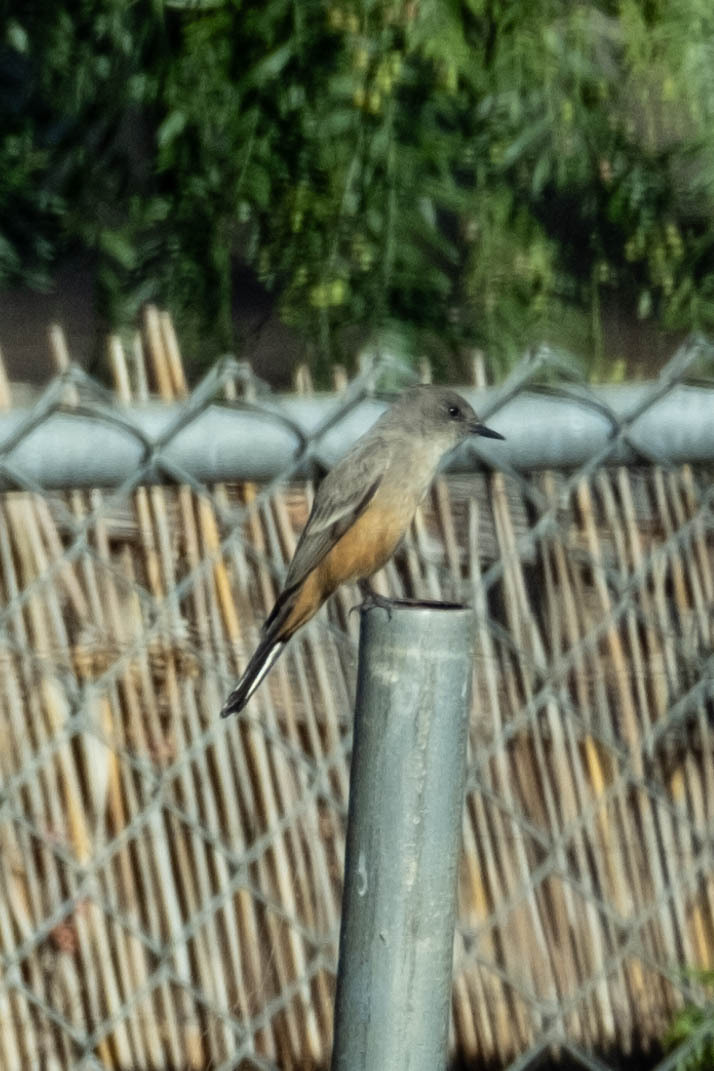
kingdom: Animalia
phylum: Chordata
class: Aves
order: Passeriformes
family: Tyrannidae
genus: Sayornis
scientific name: Sayornis saya
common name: Say's phoebe
